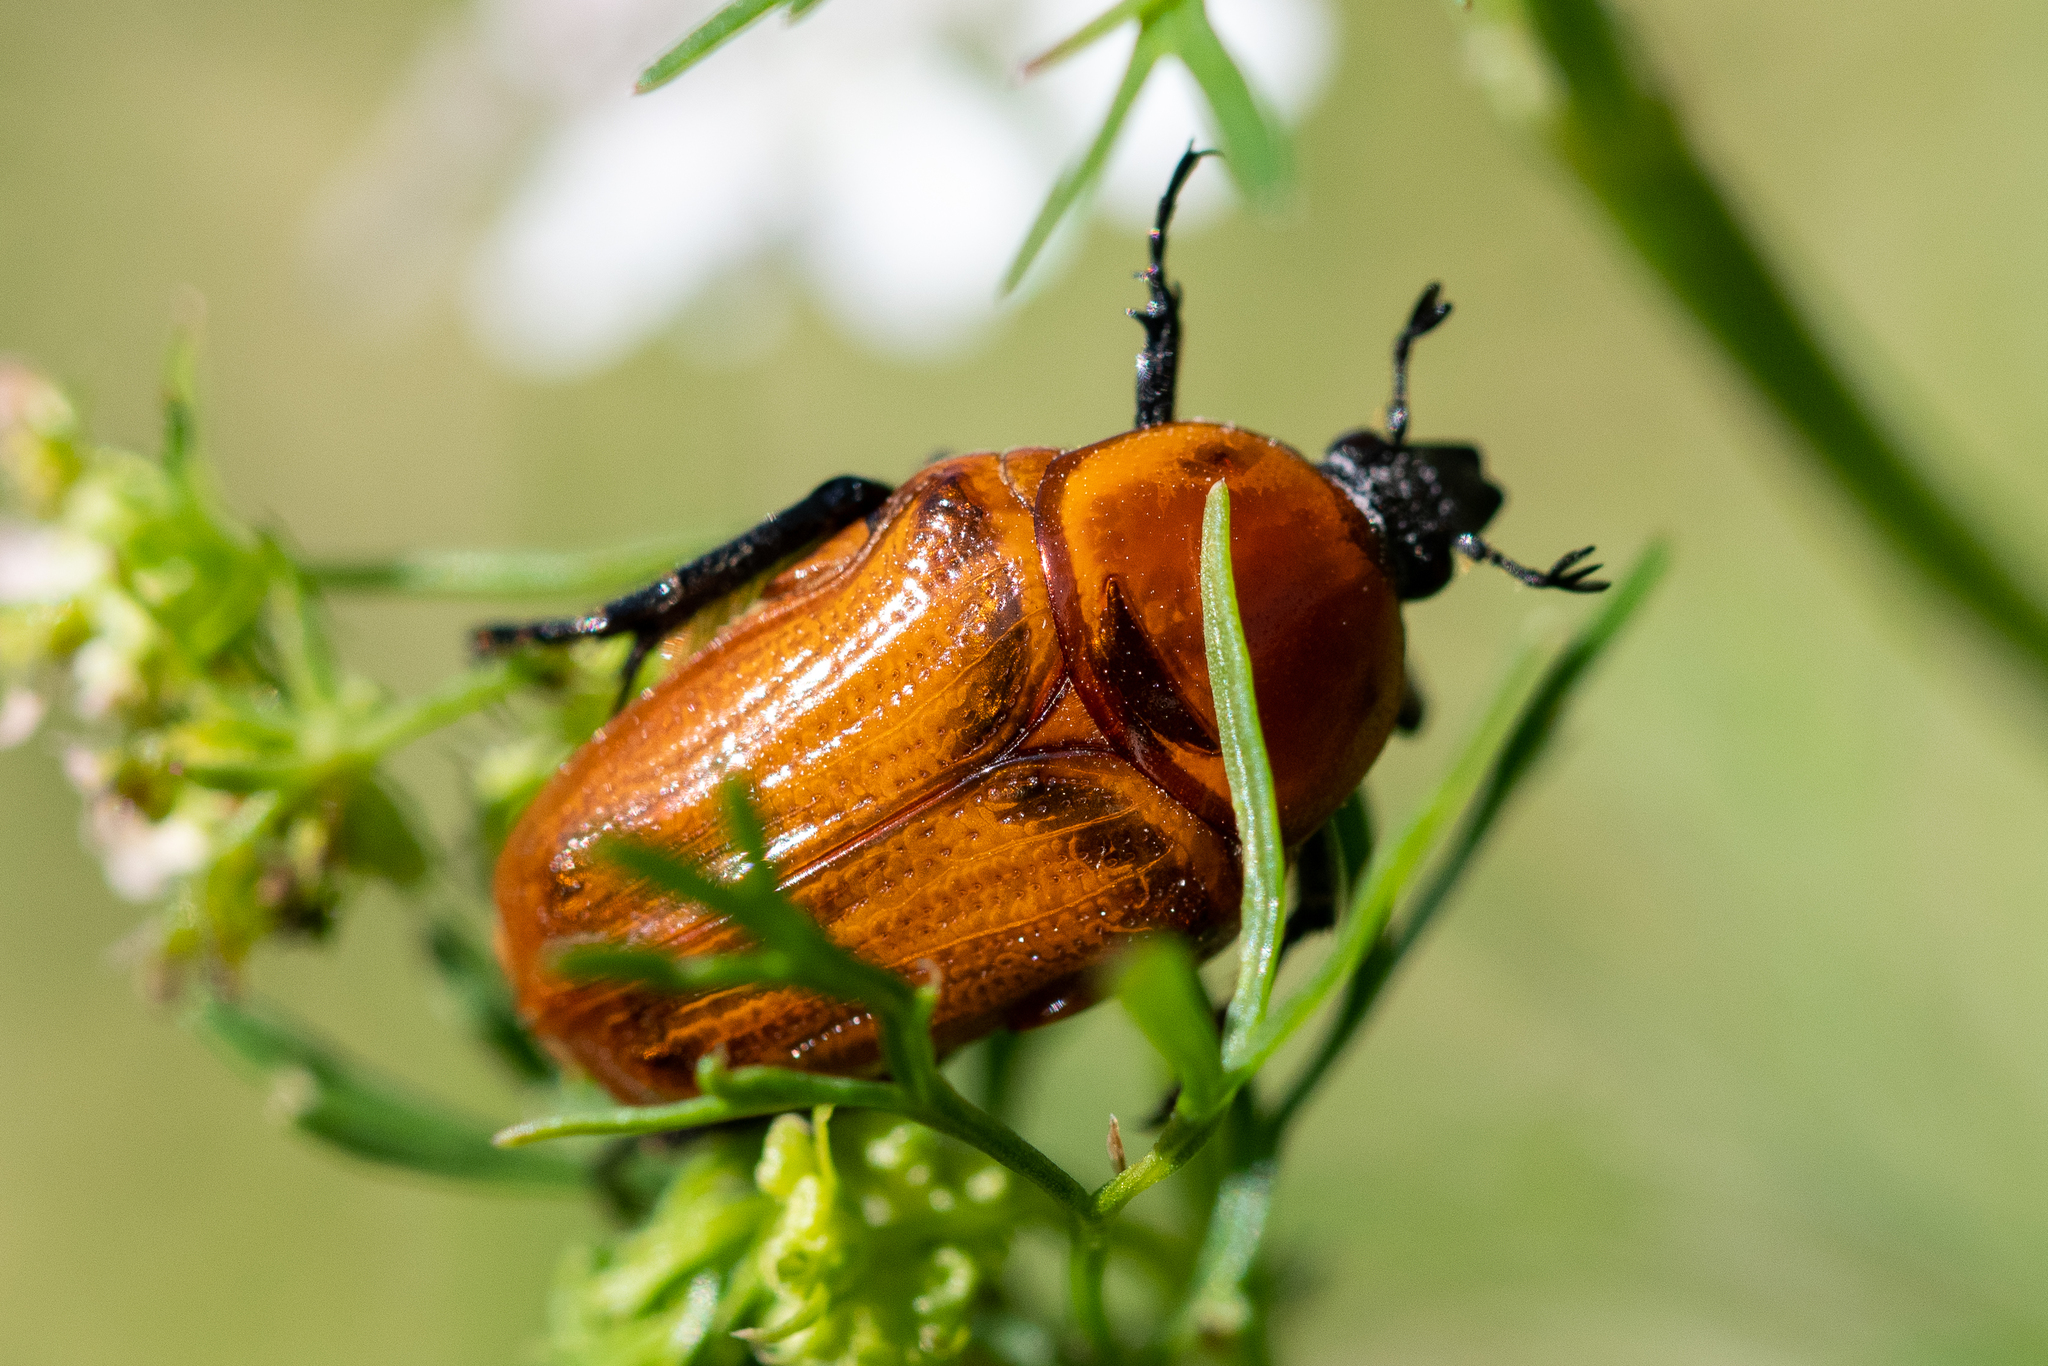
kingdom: Animalia
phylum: Arthropoda
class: Insecta
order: Coleoptera
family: Scarabaeidae
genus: Leucocelis
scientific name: Leucocelis rubra
